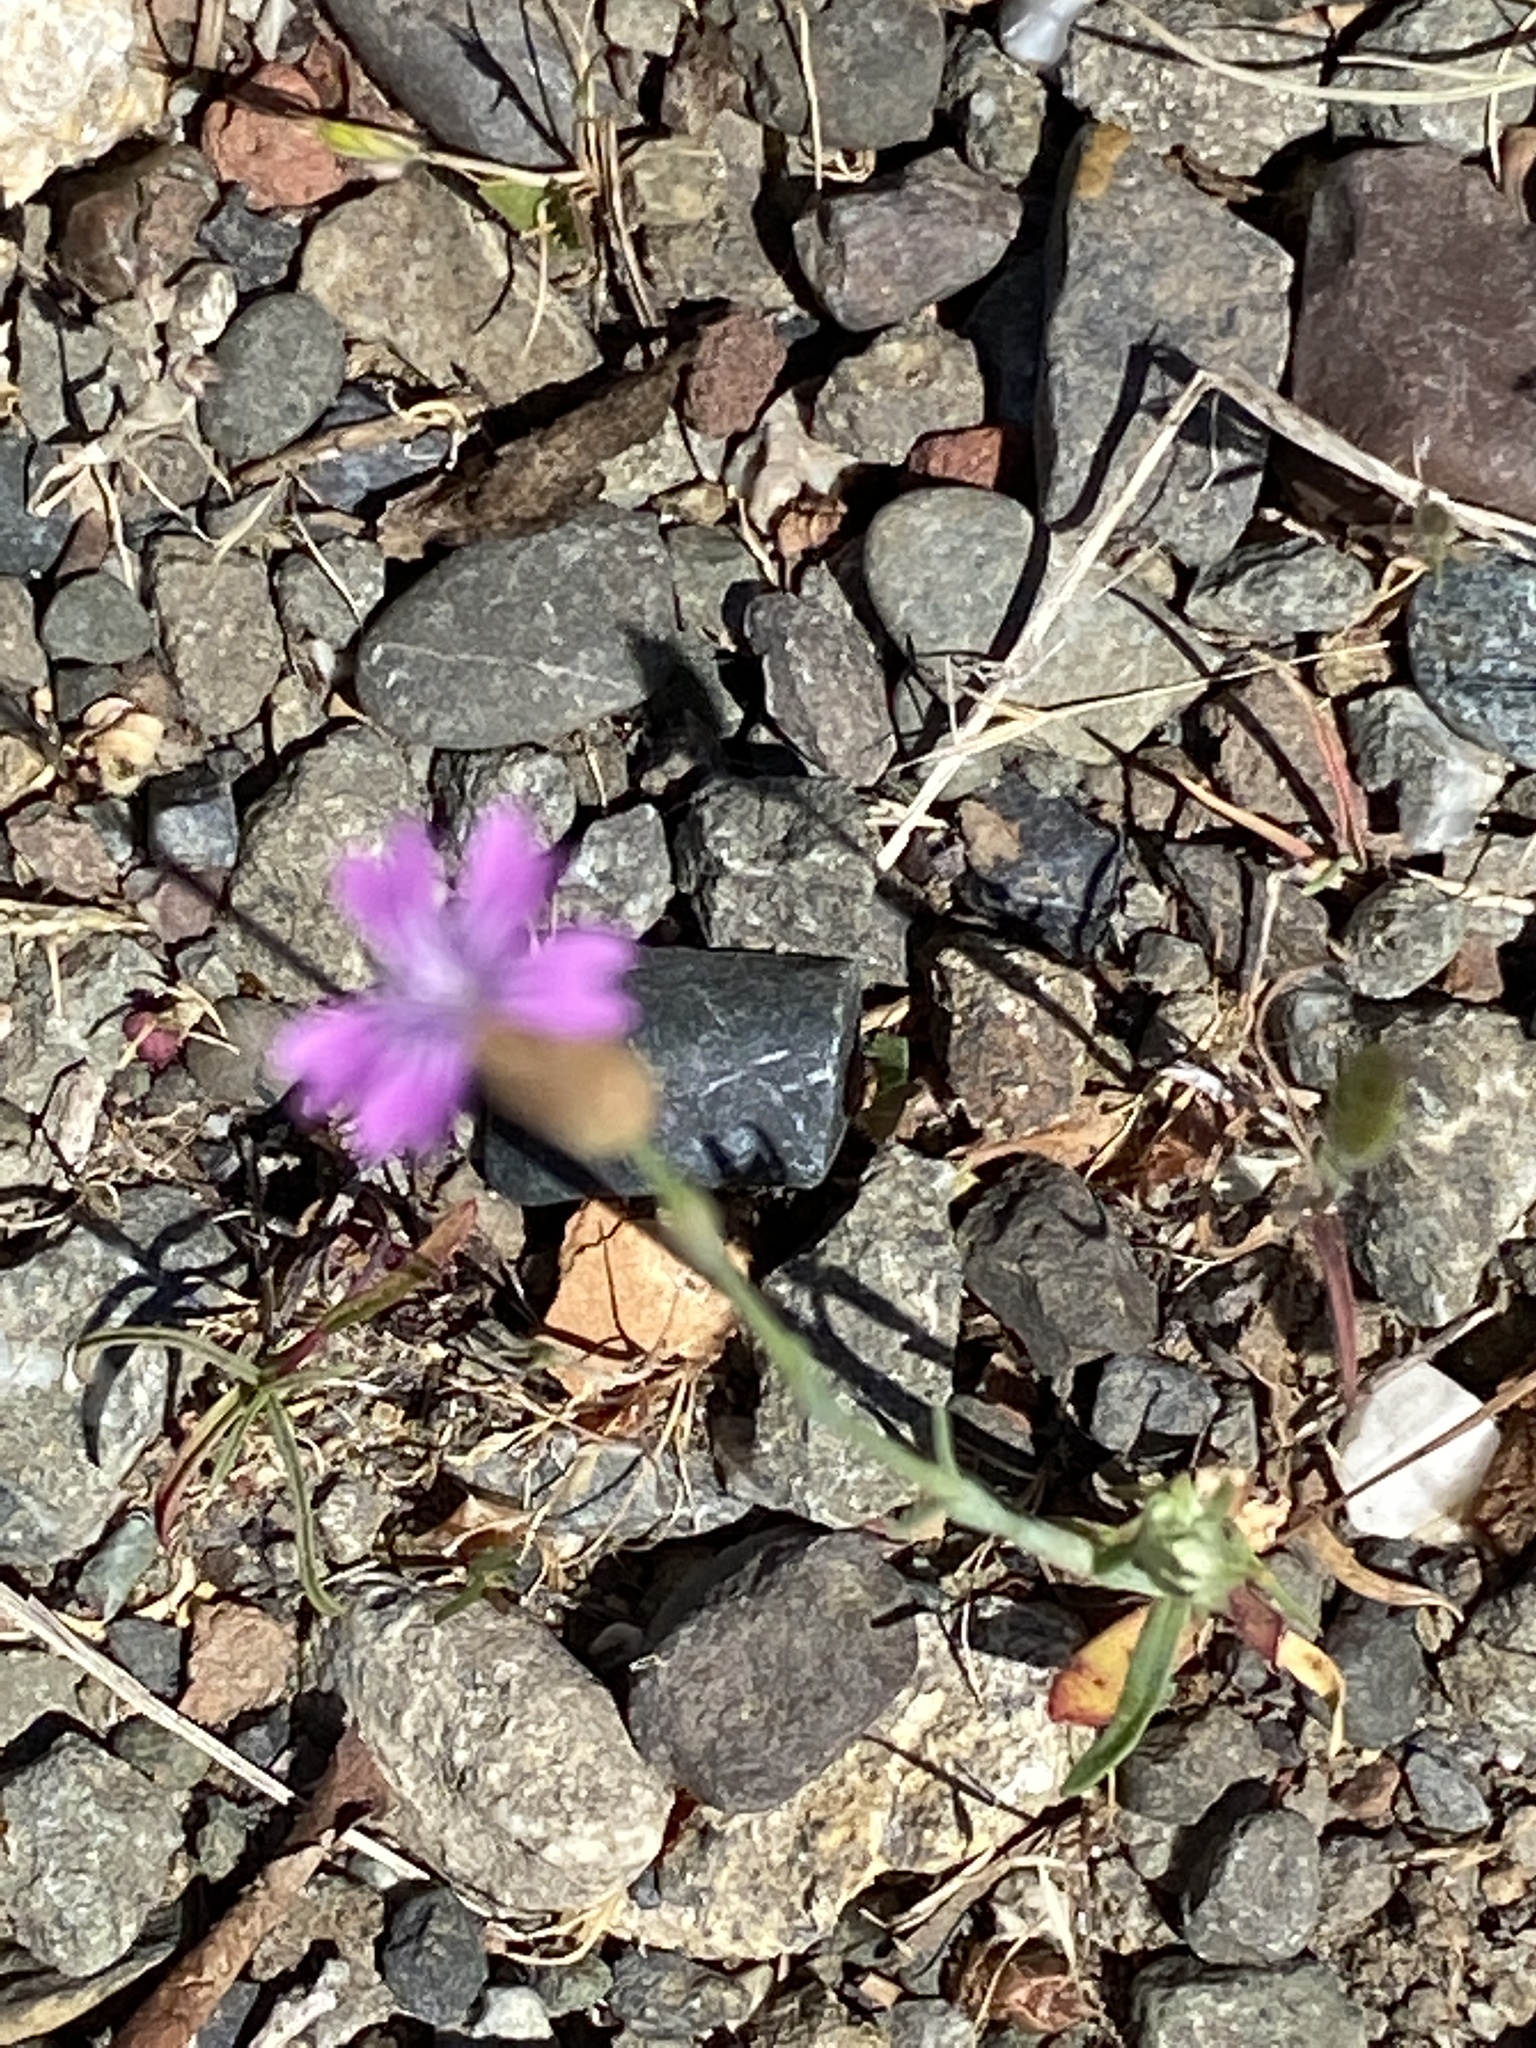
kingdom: Plantae
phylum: Tracheophyta
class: Magnoliopsida
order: Caryophyllales
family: Caryophyllaceae
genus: Petrorhagia
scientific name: Petrorhagia dubia
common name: Hairypink
